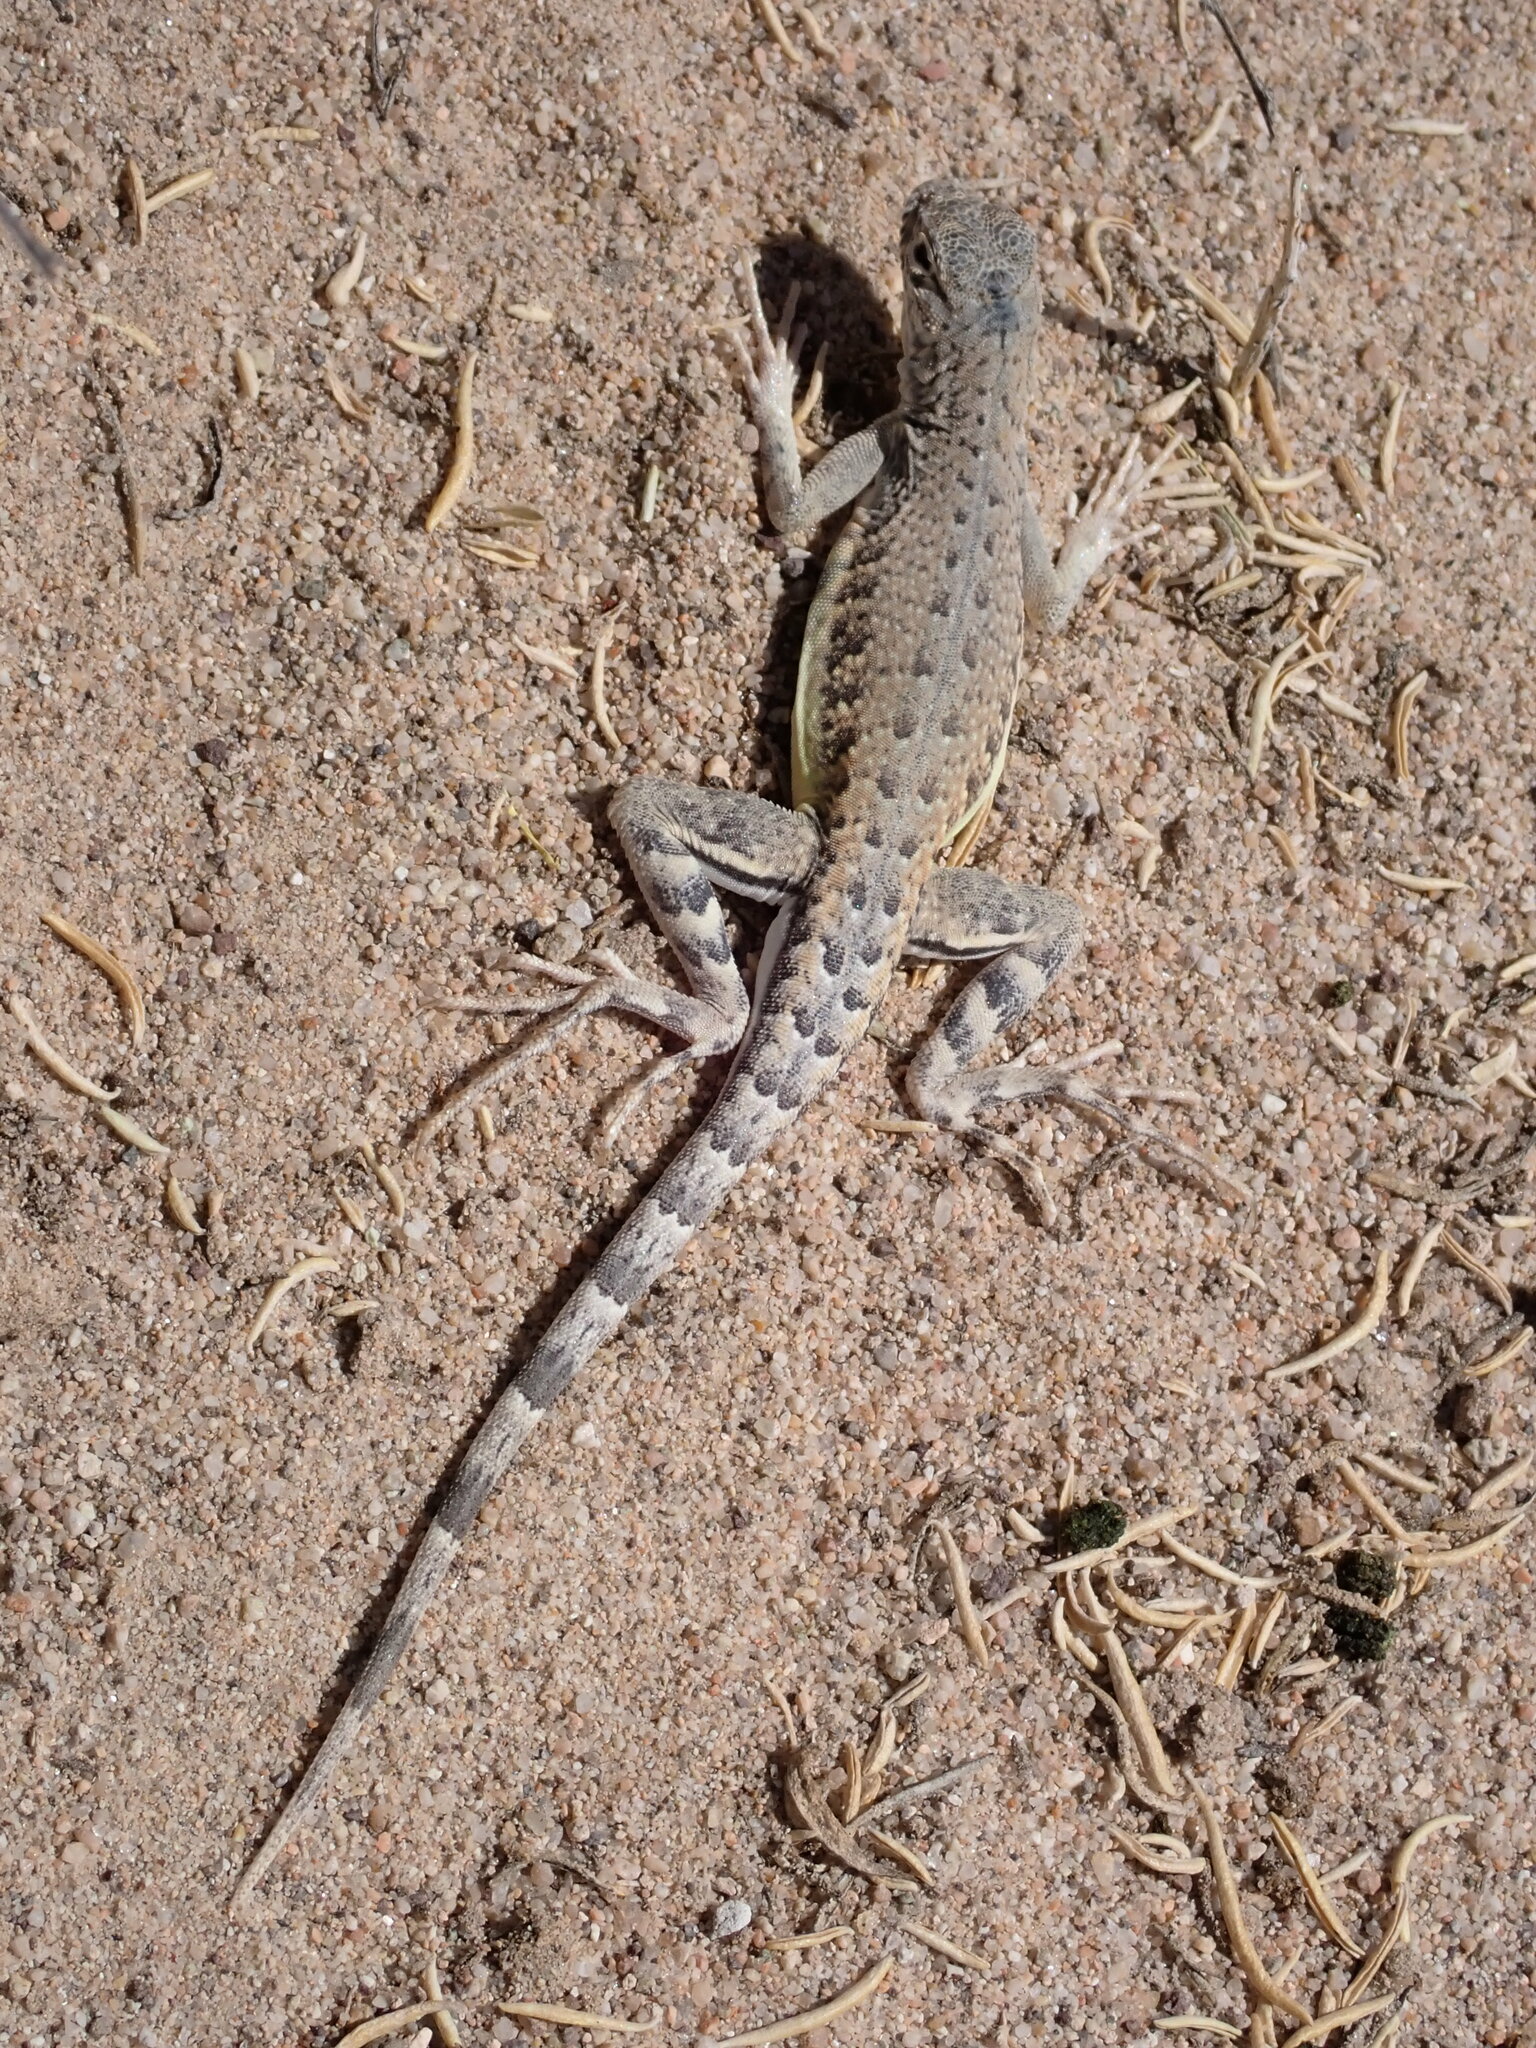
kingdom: Animalia
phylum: Chordata
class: Squamata
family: Phrynosomatidae
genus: Callisaurus
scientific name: Callisaurus draconoides
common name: Zebra-tailed lizard
